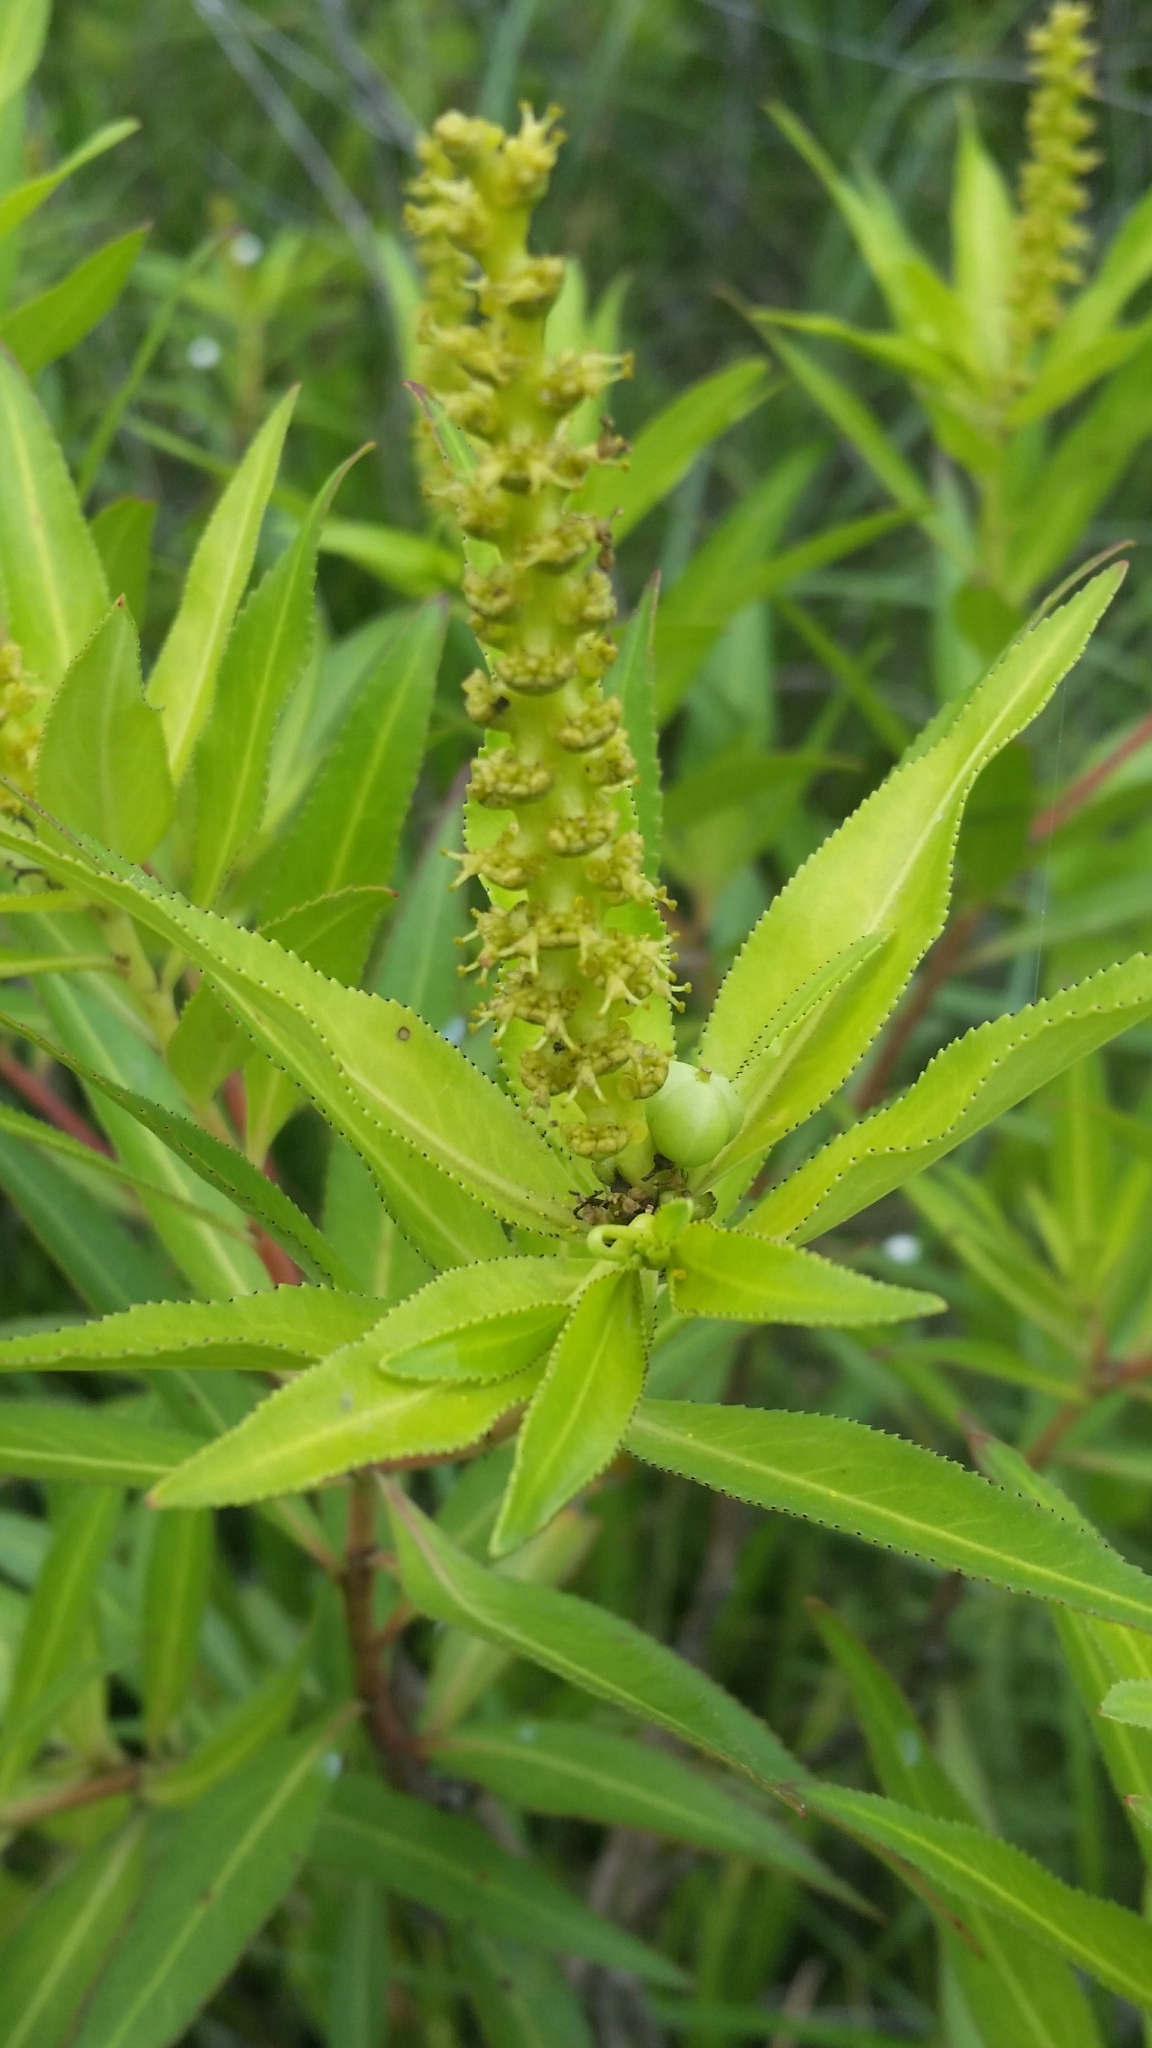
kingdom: Plantae
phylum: Tracheophyta
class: Magnoliopsida
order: Malpighiales
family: Euphorbiaceae
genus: Stillingia
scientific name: Stillingia aquatica
